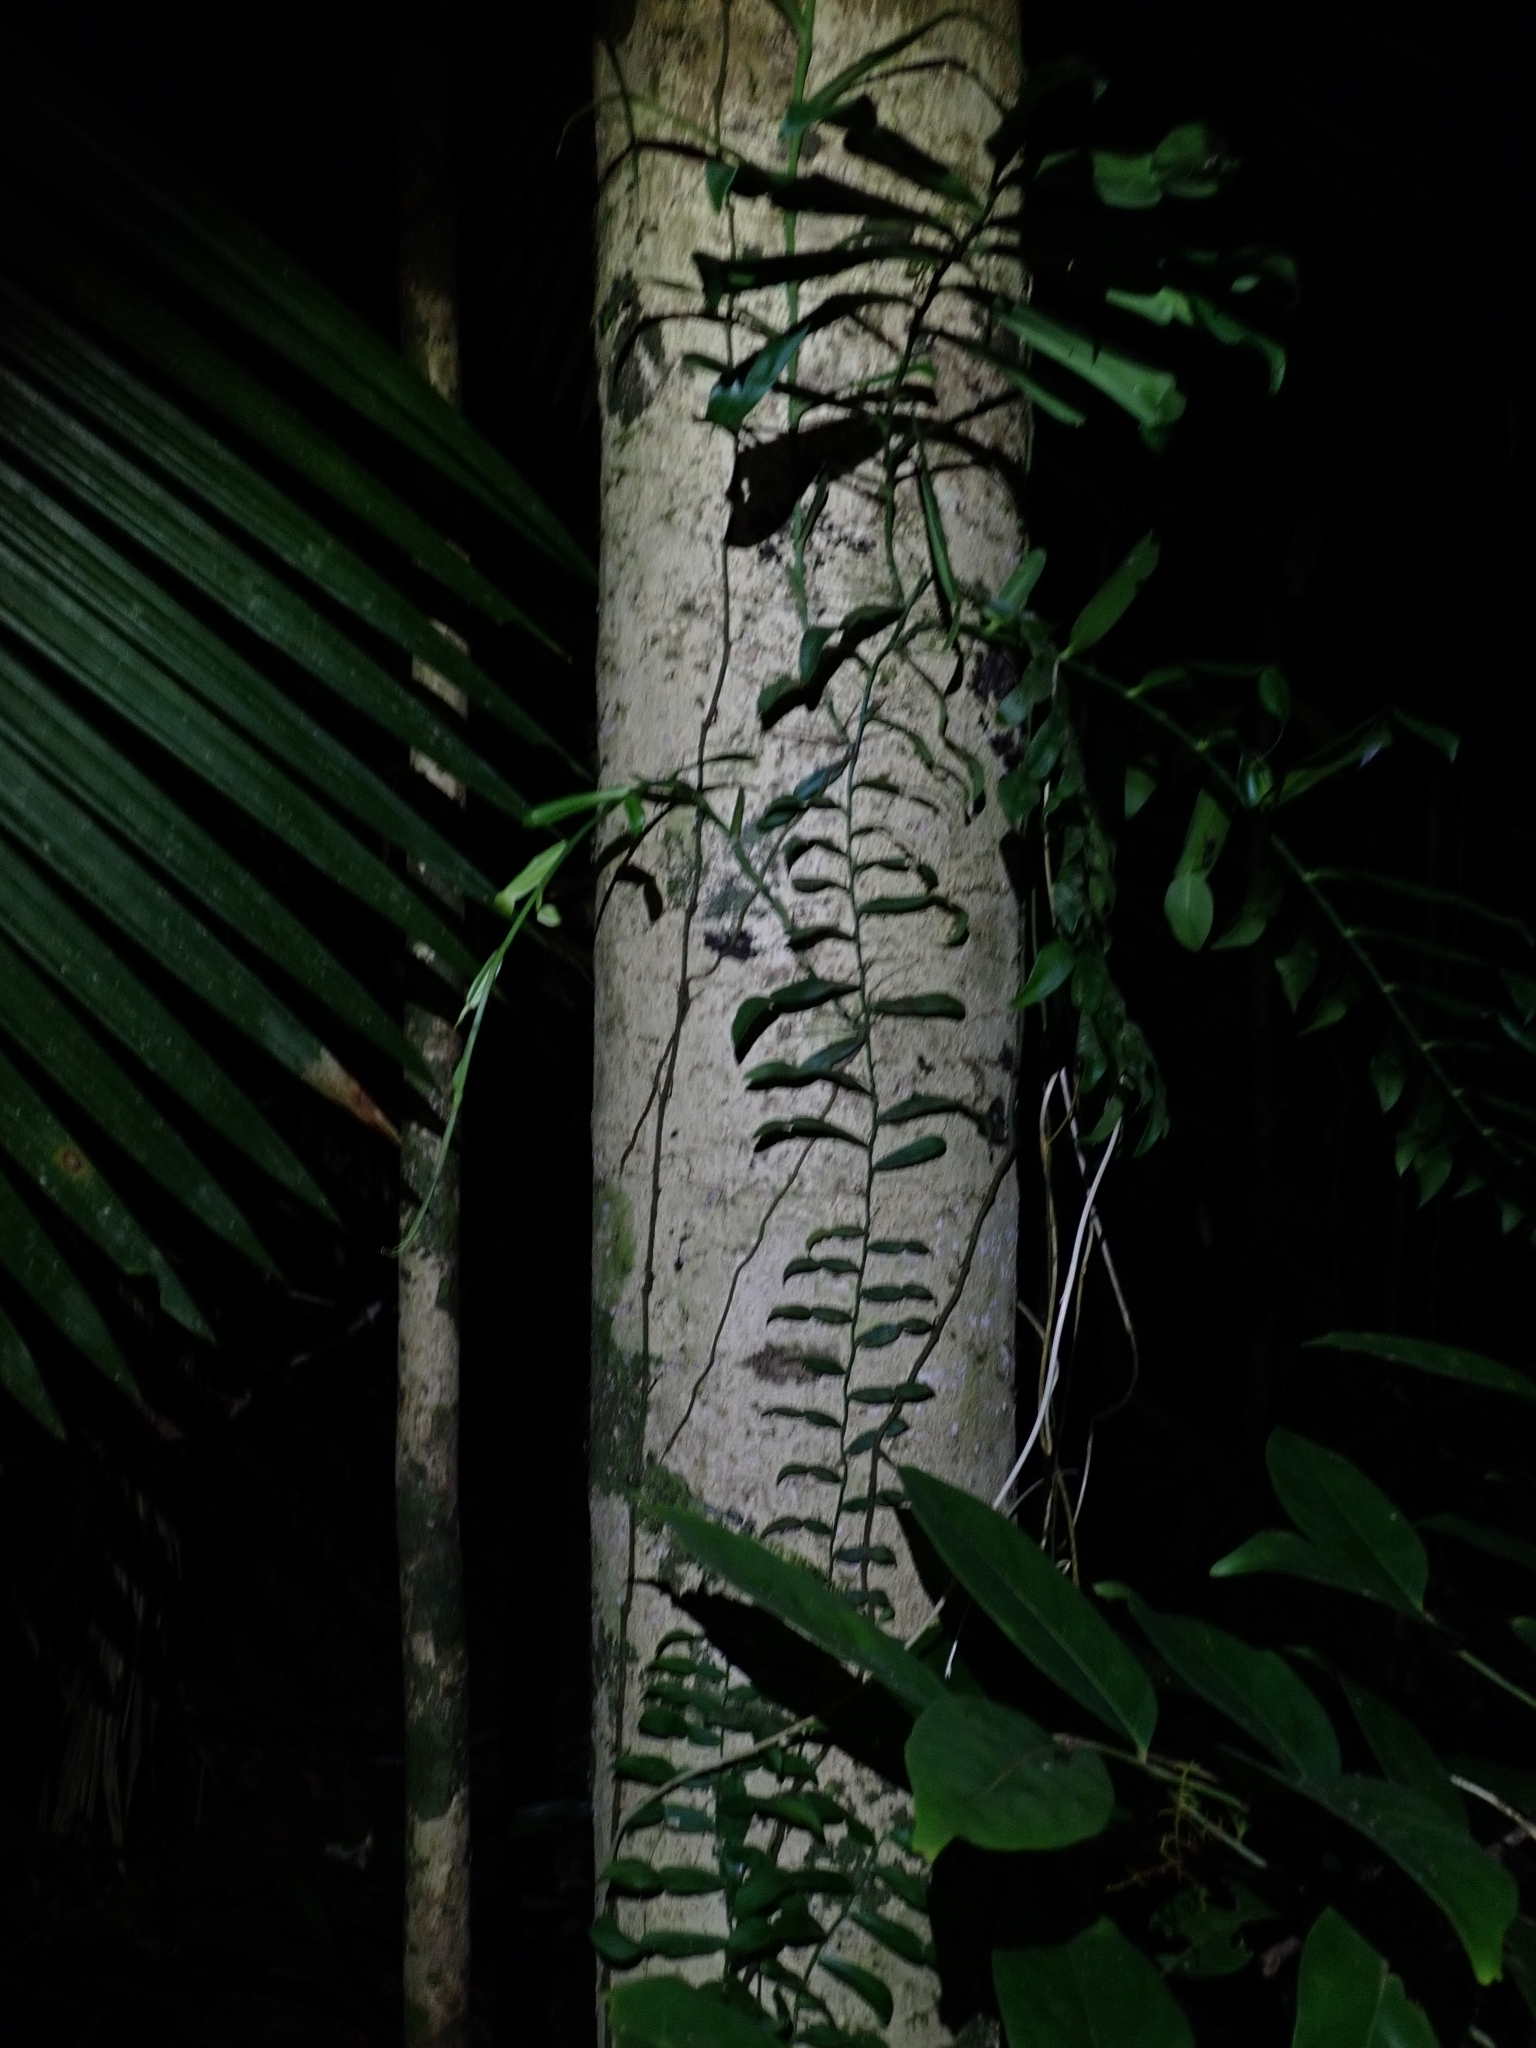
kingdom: Plantae
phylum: Tracheophyta
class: Liliopsida
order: Alismatales
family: Araceae
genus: Pothos
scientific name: Pothos longipes
